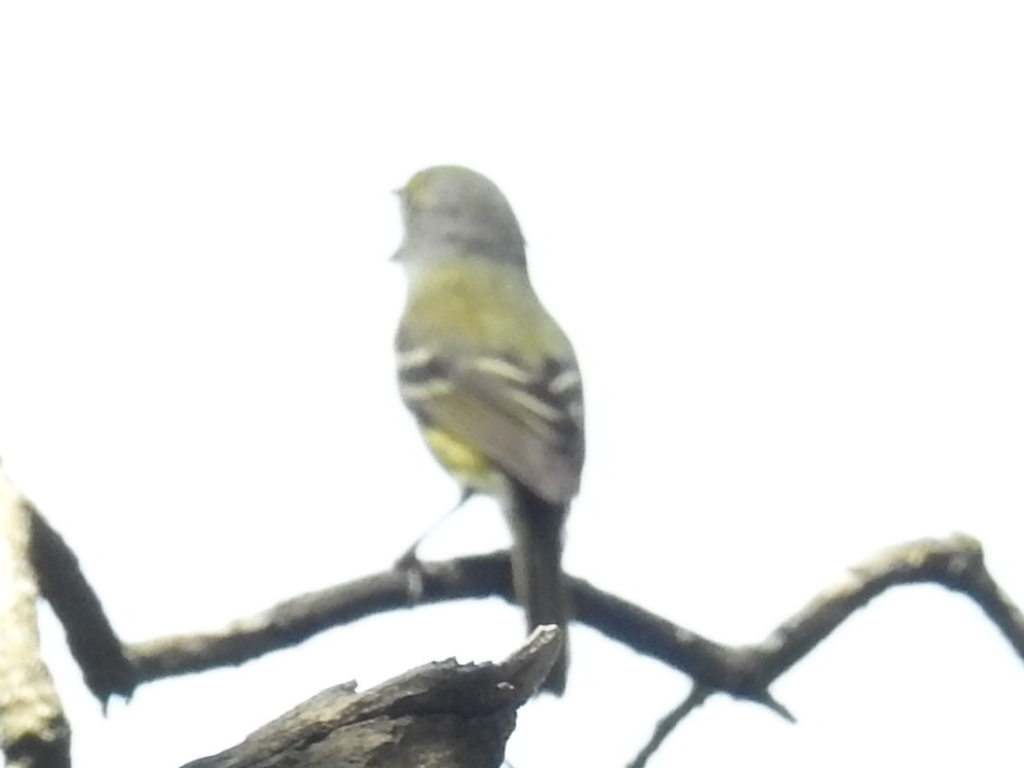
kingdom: Animalia
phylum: Chordata
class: Aves
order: Passeriformes
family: Vireonidae
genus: Vireo
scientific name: Vireo griseus
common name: White-eyed vireo
